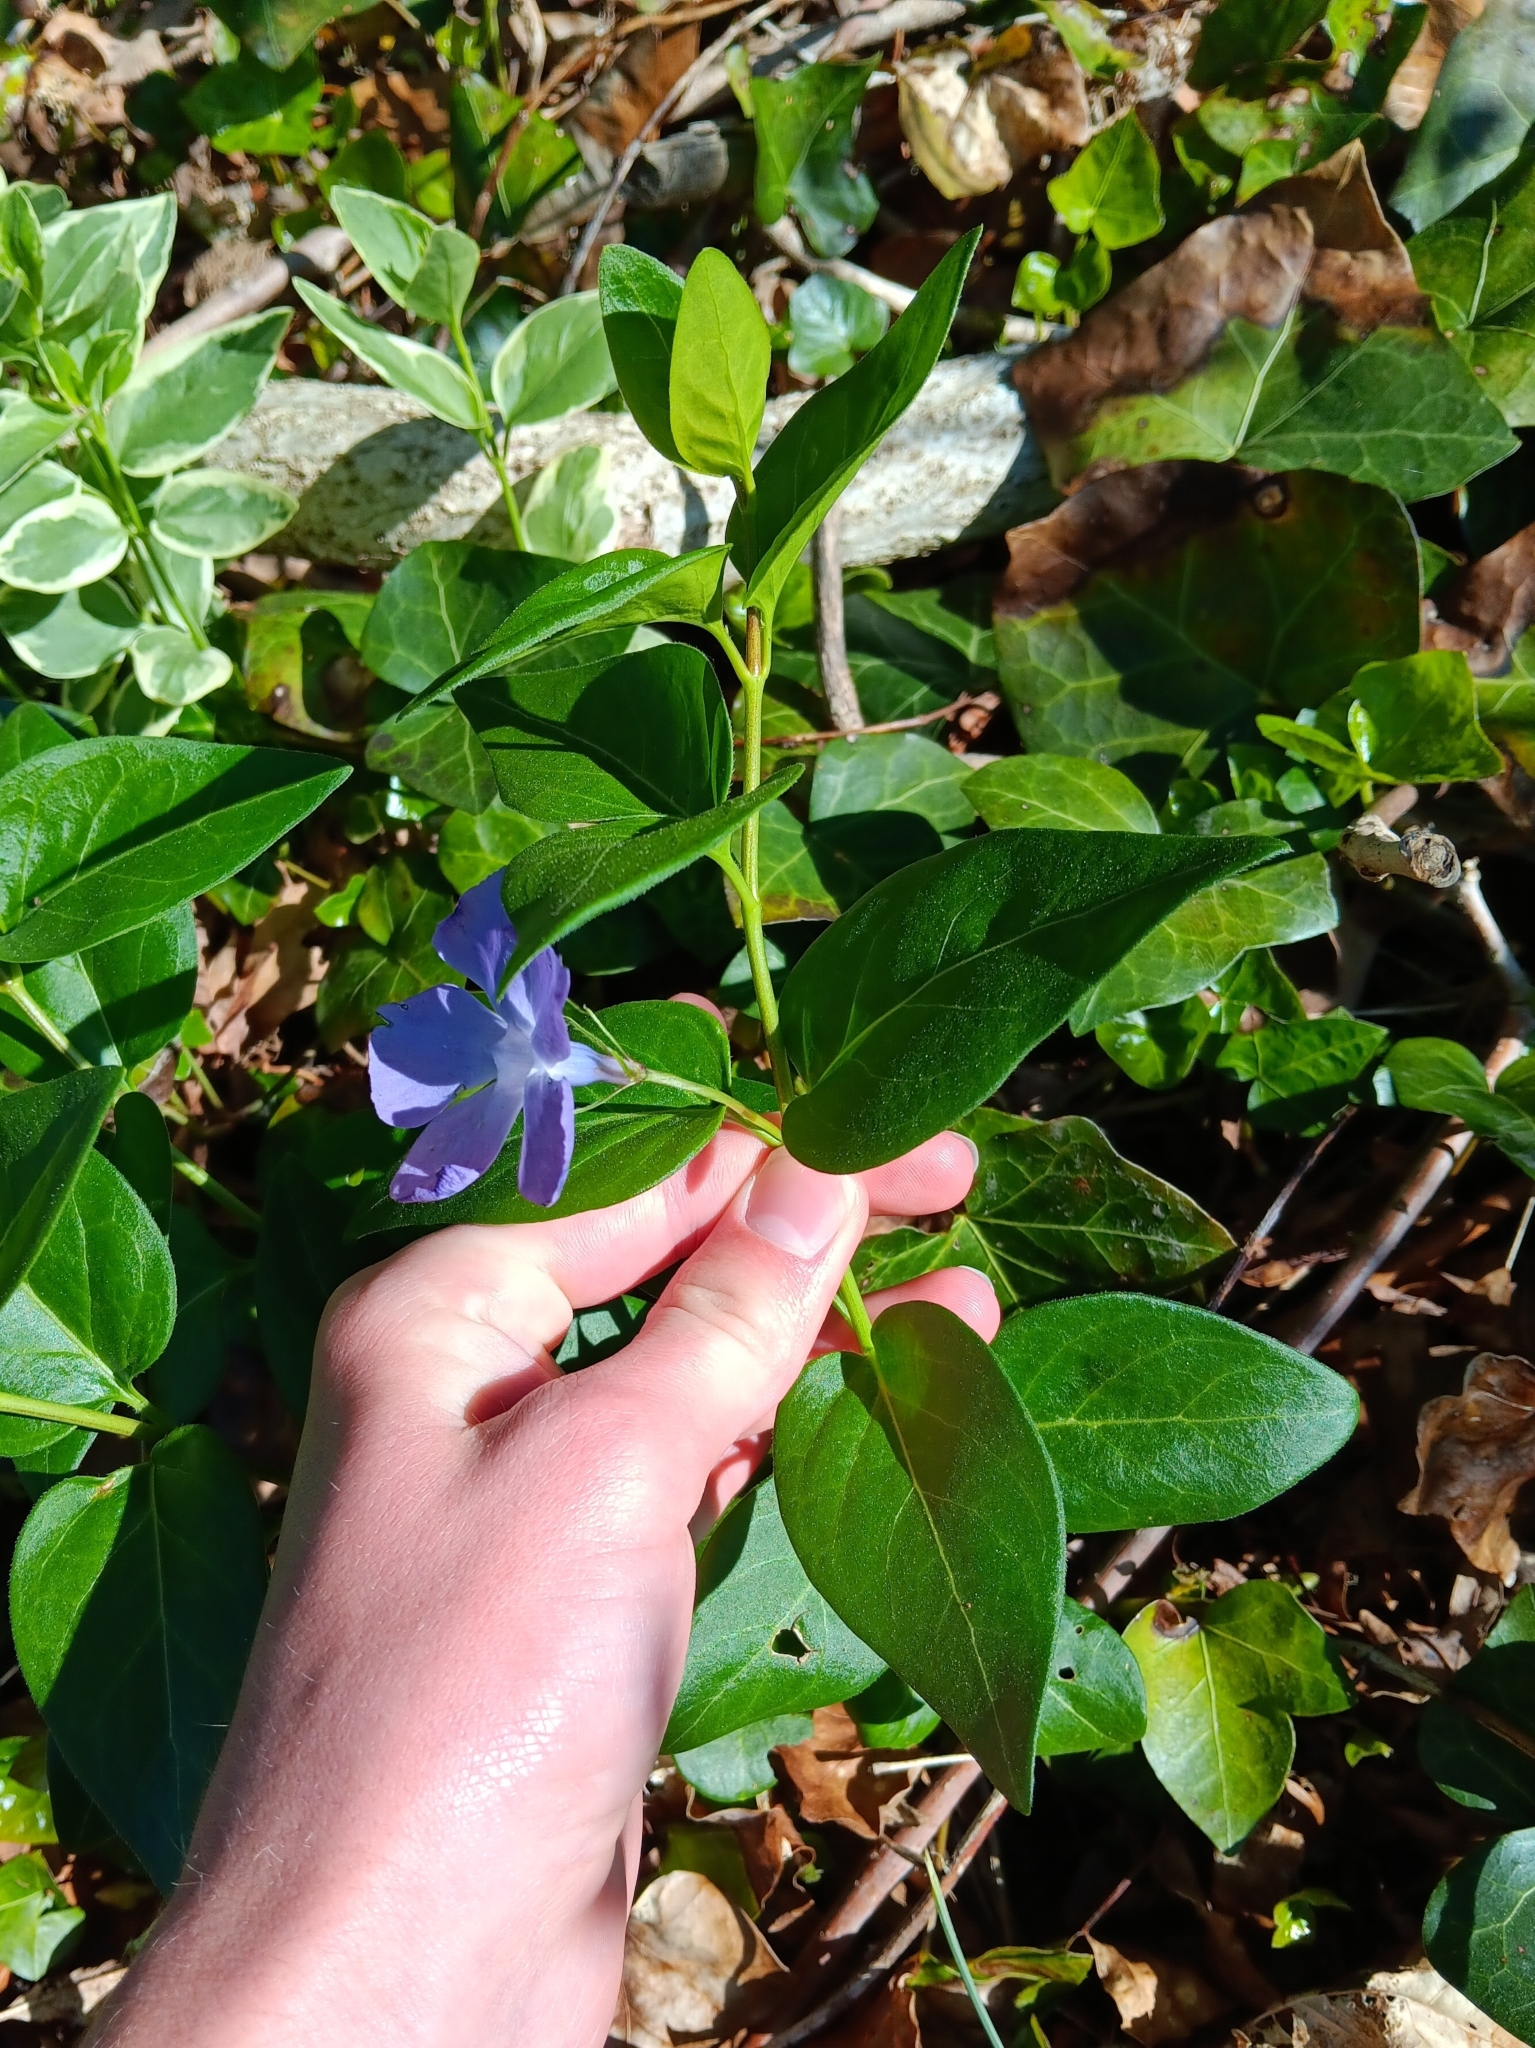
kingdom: Plantae
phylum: Tracheophyta
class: Magnoliopsida
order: Gentianales
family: Apocynaceae
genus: Vinca
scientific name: Vinca major
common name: Greater periwinkle
